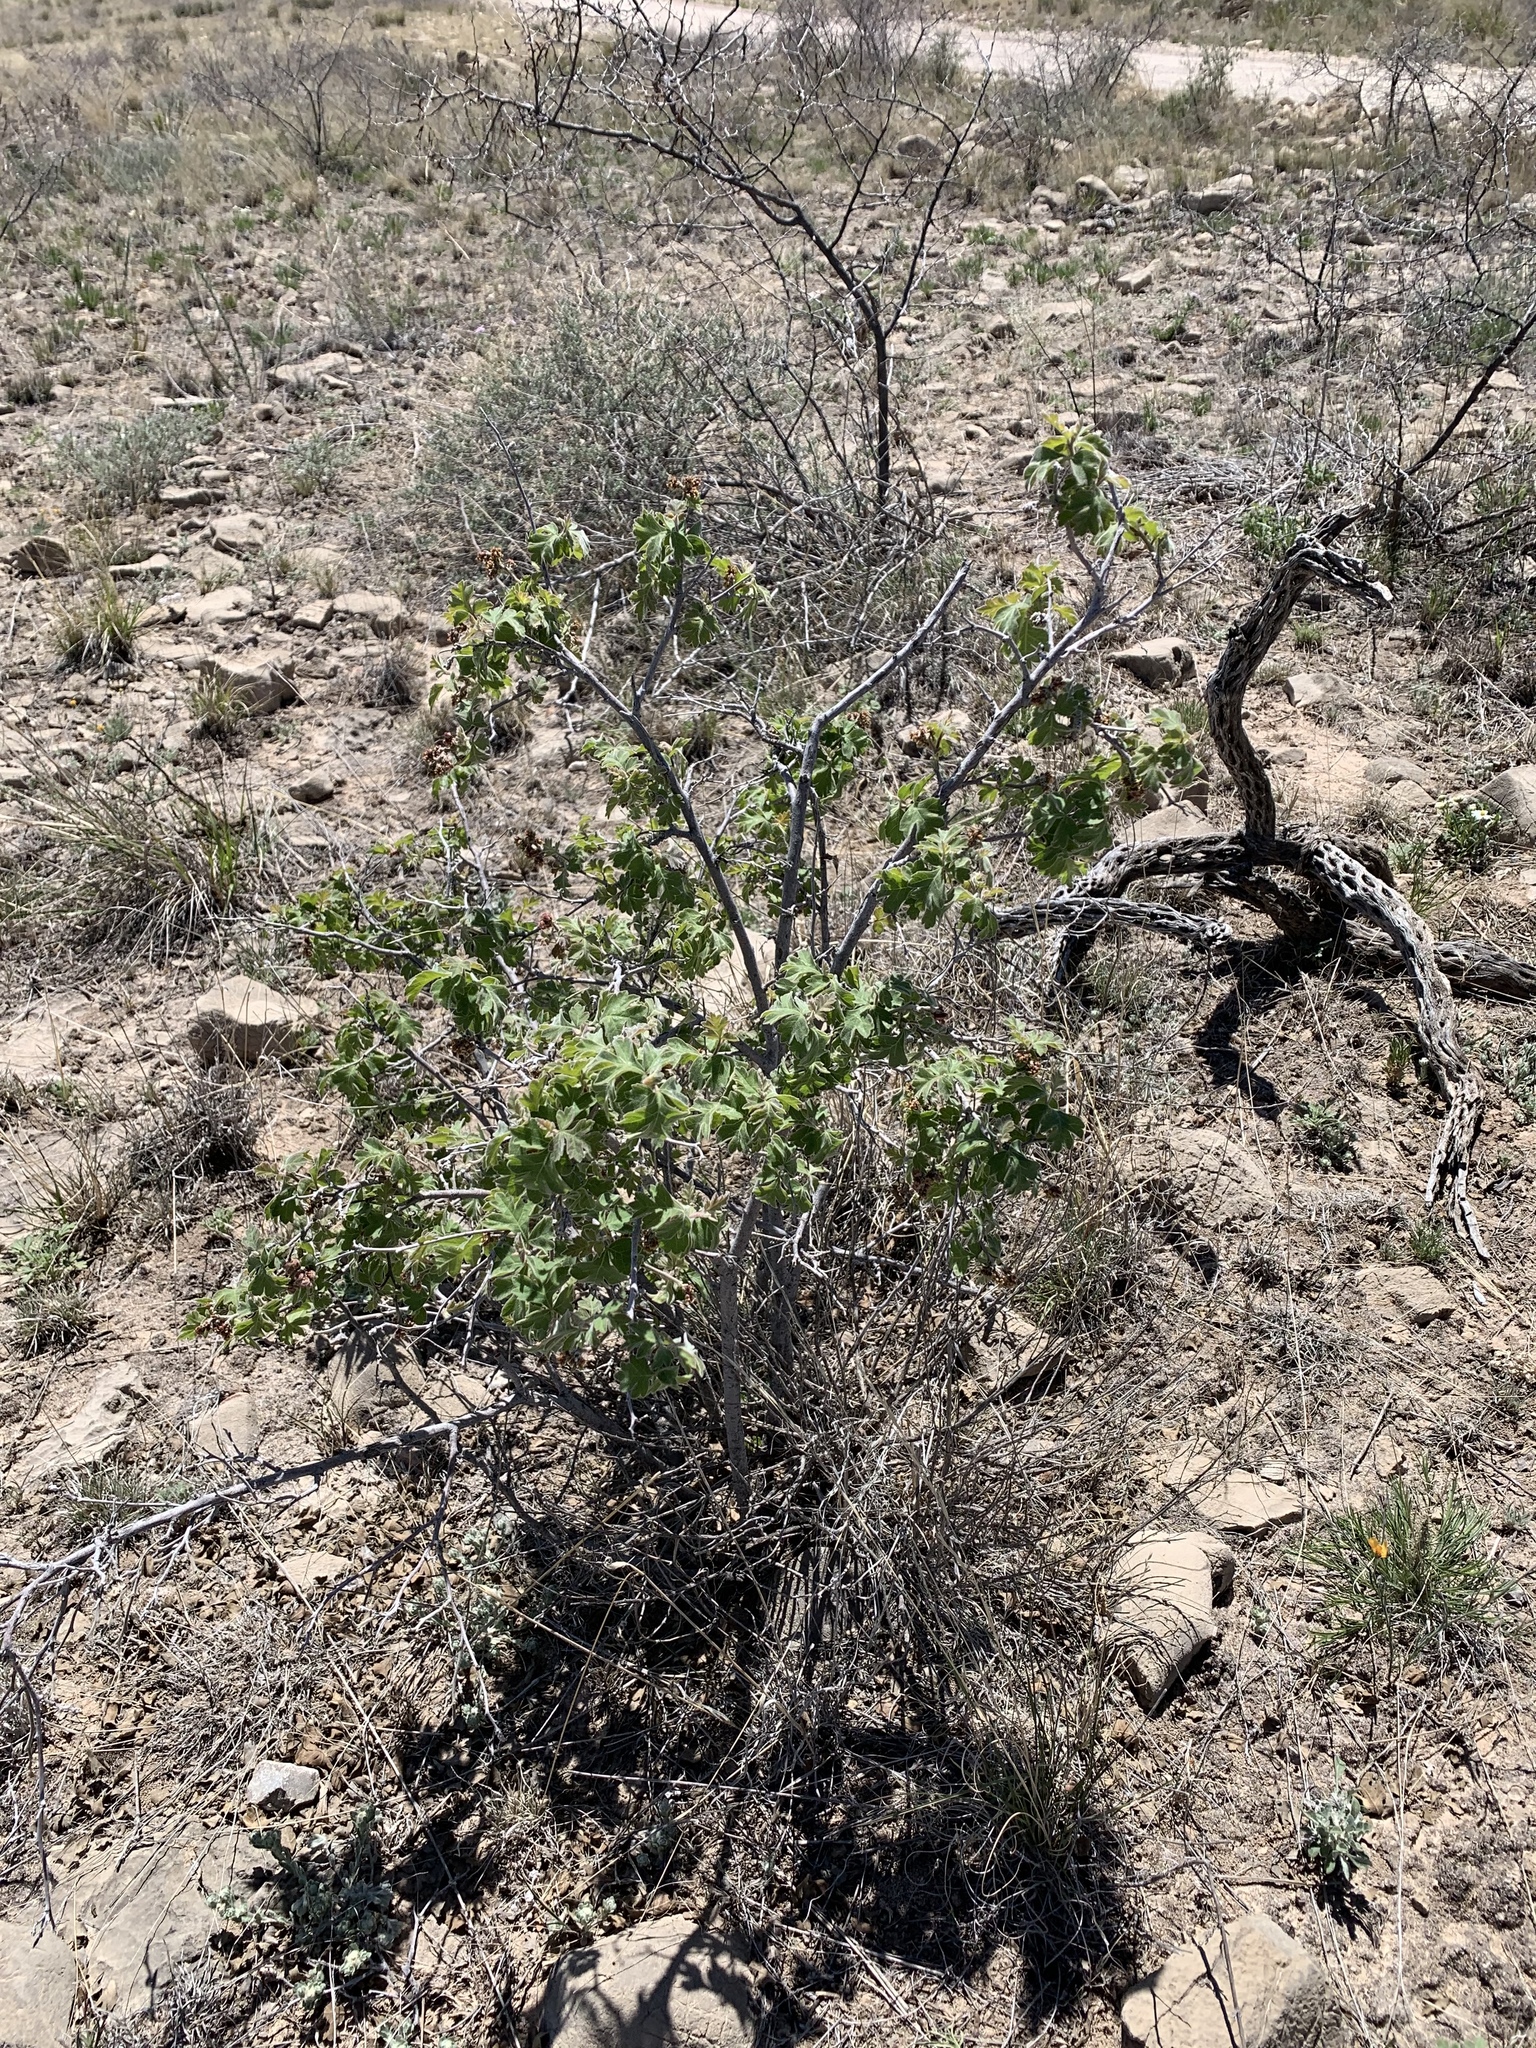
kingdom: Plantae
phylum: Tracheophyta
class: Magnoliopsida
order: Sapindales
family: Anacardiaceae
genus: Rhus
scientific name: Rhus aromatica
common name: Aromatic sumac
